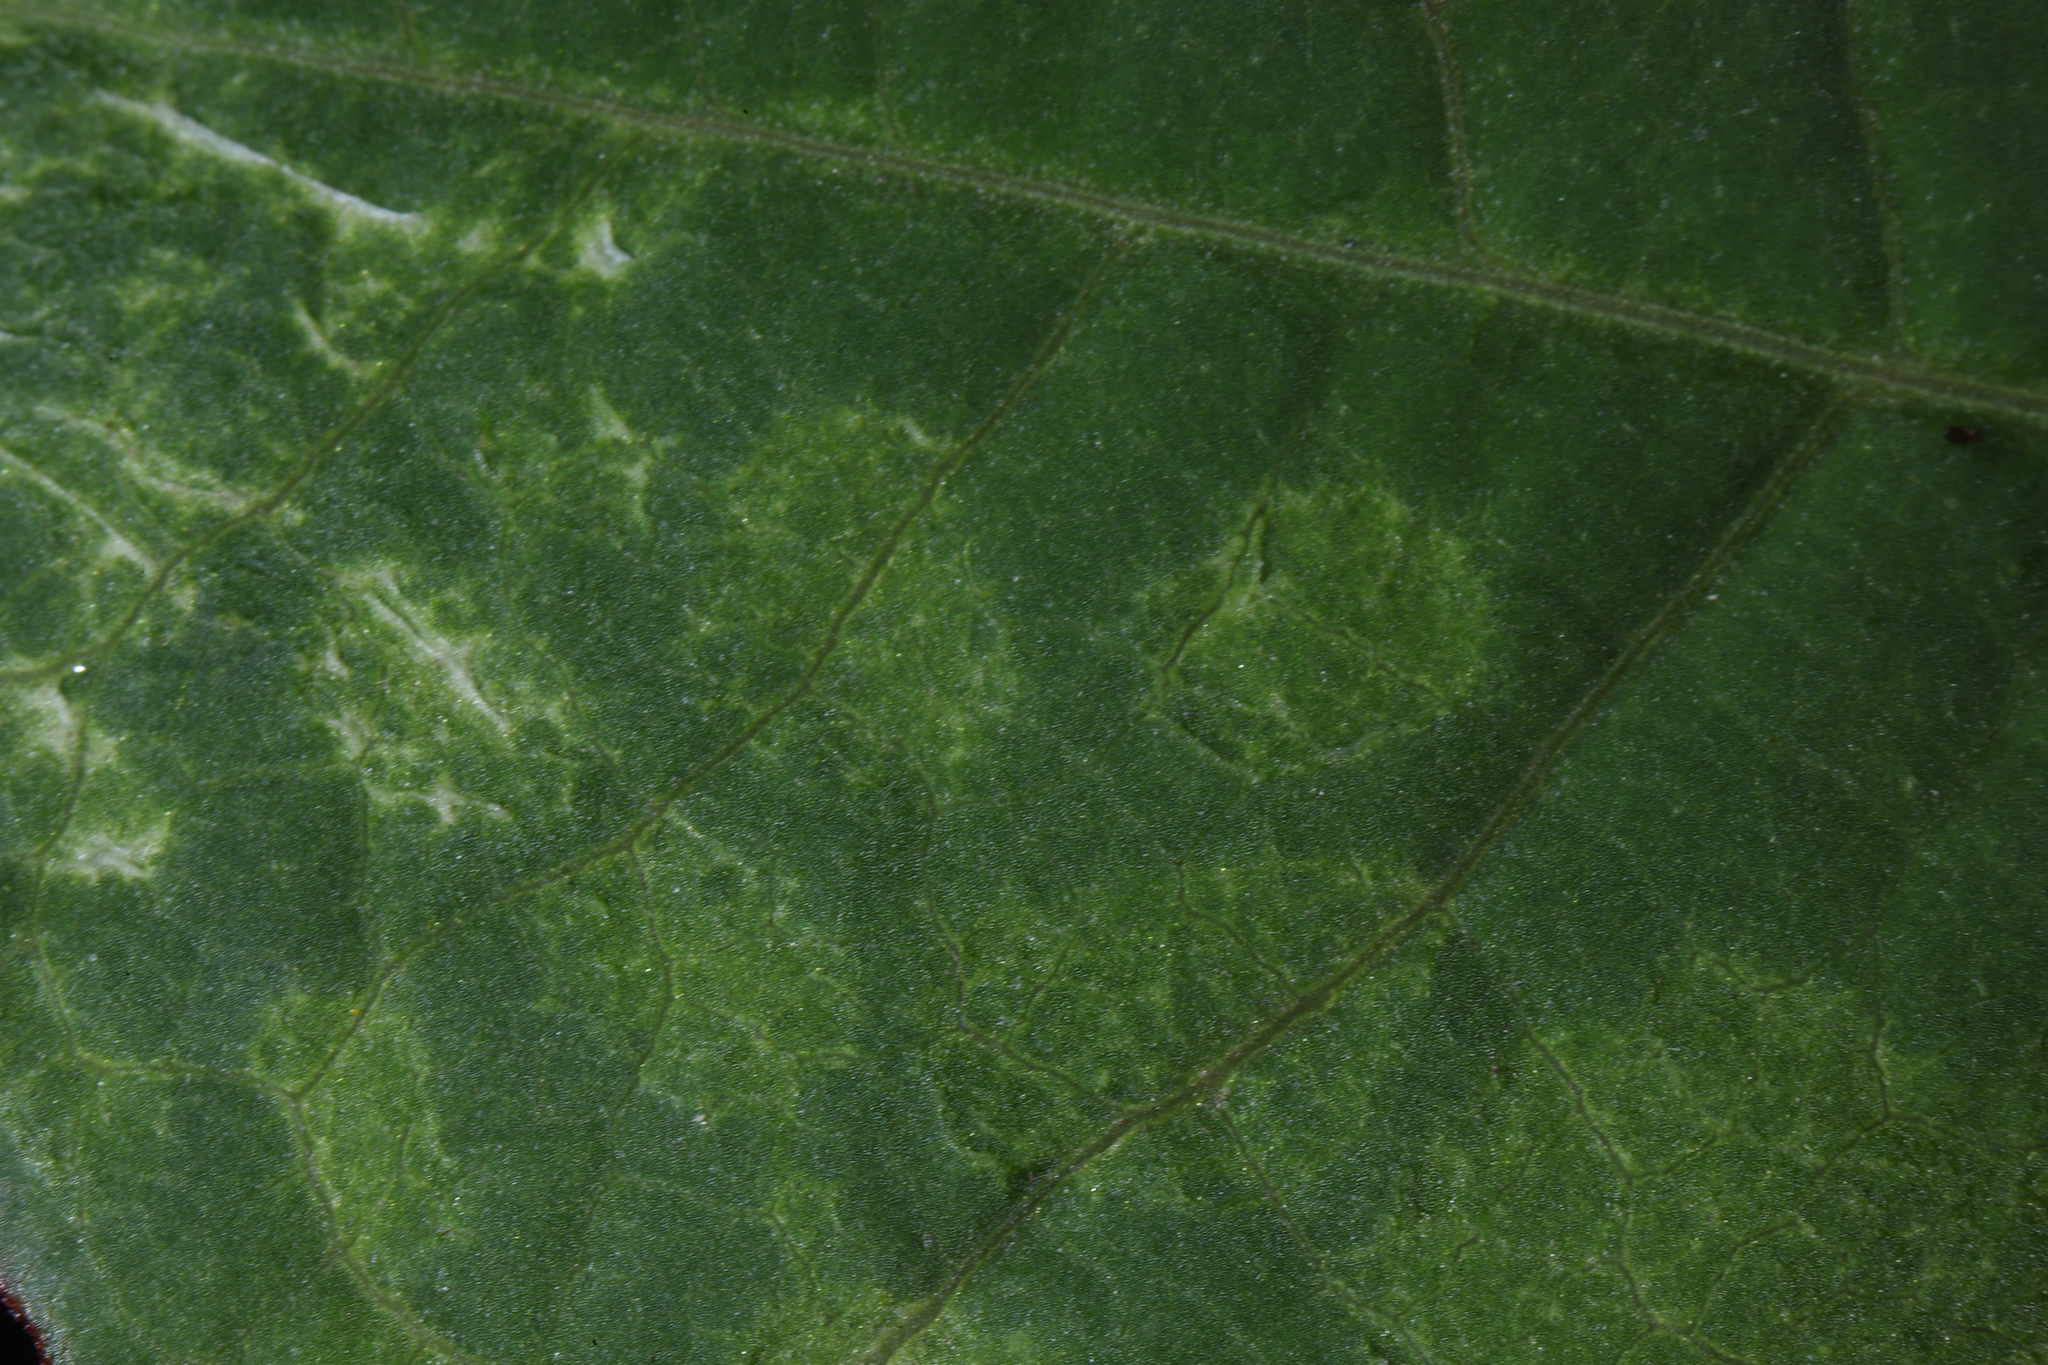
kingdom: Plantae
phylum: Tracheophyta
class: Magnoliopsida
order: Caryophyllales
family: Polygonaceae
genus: Reynoutria
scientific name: Reynoutria japonica
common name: Japanese knotweed
